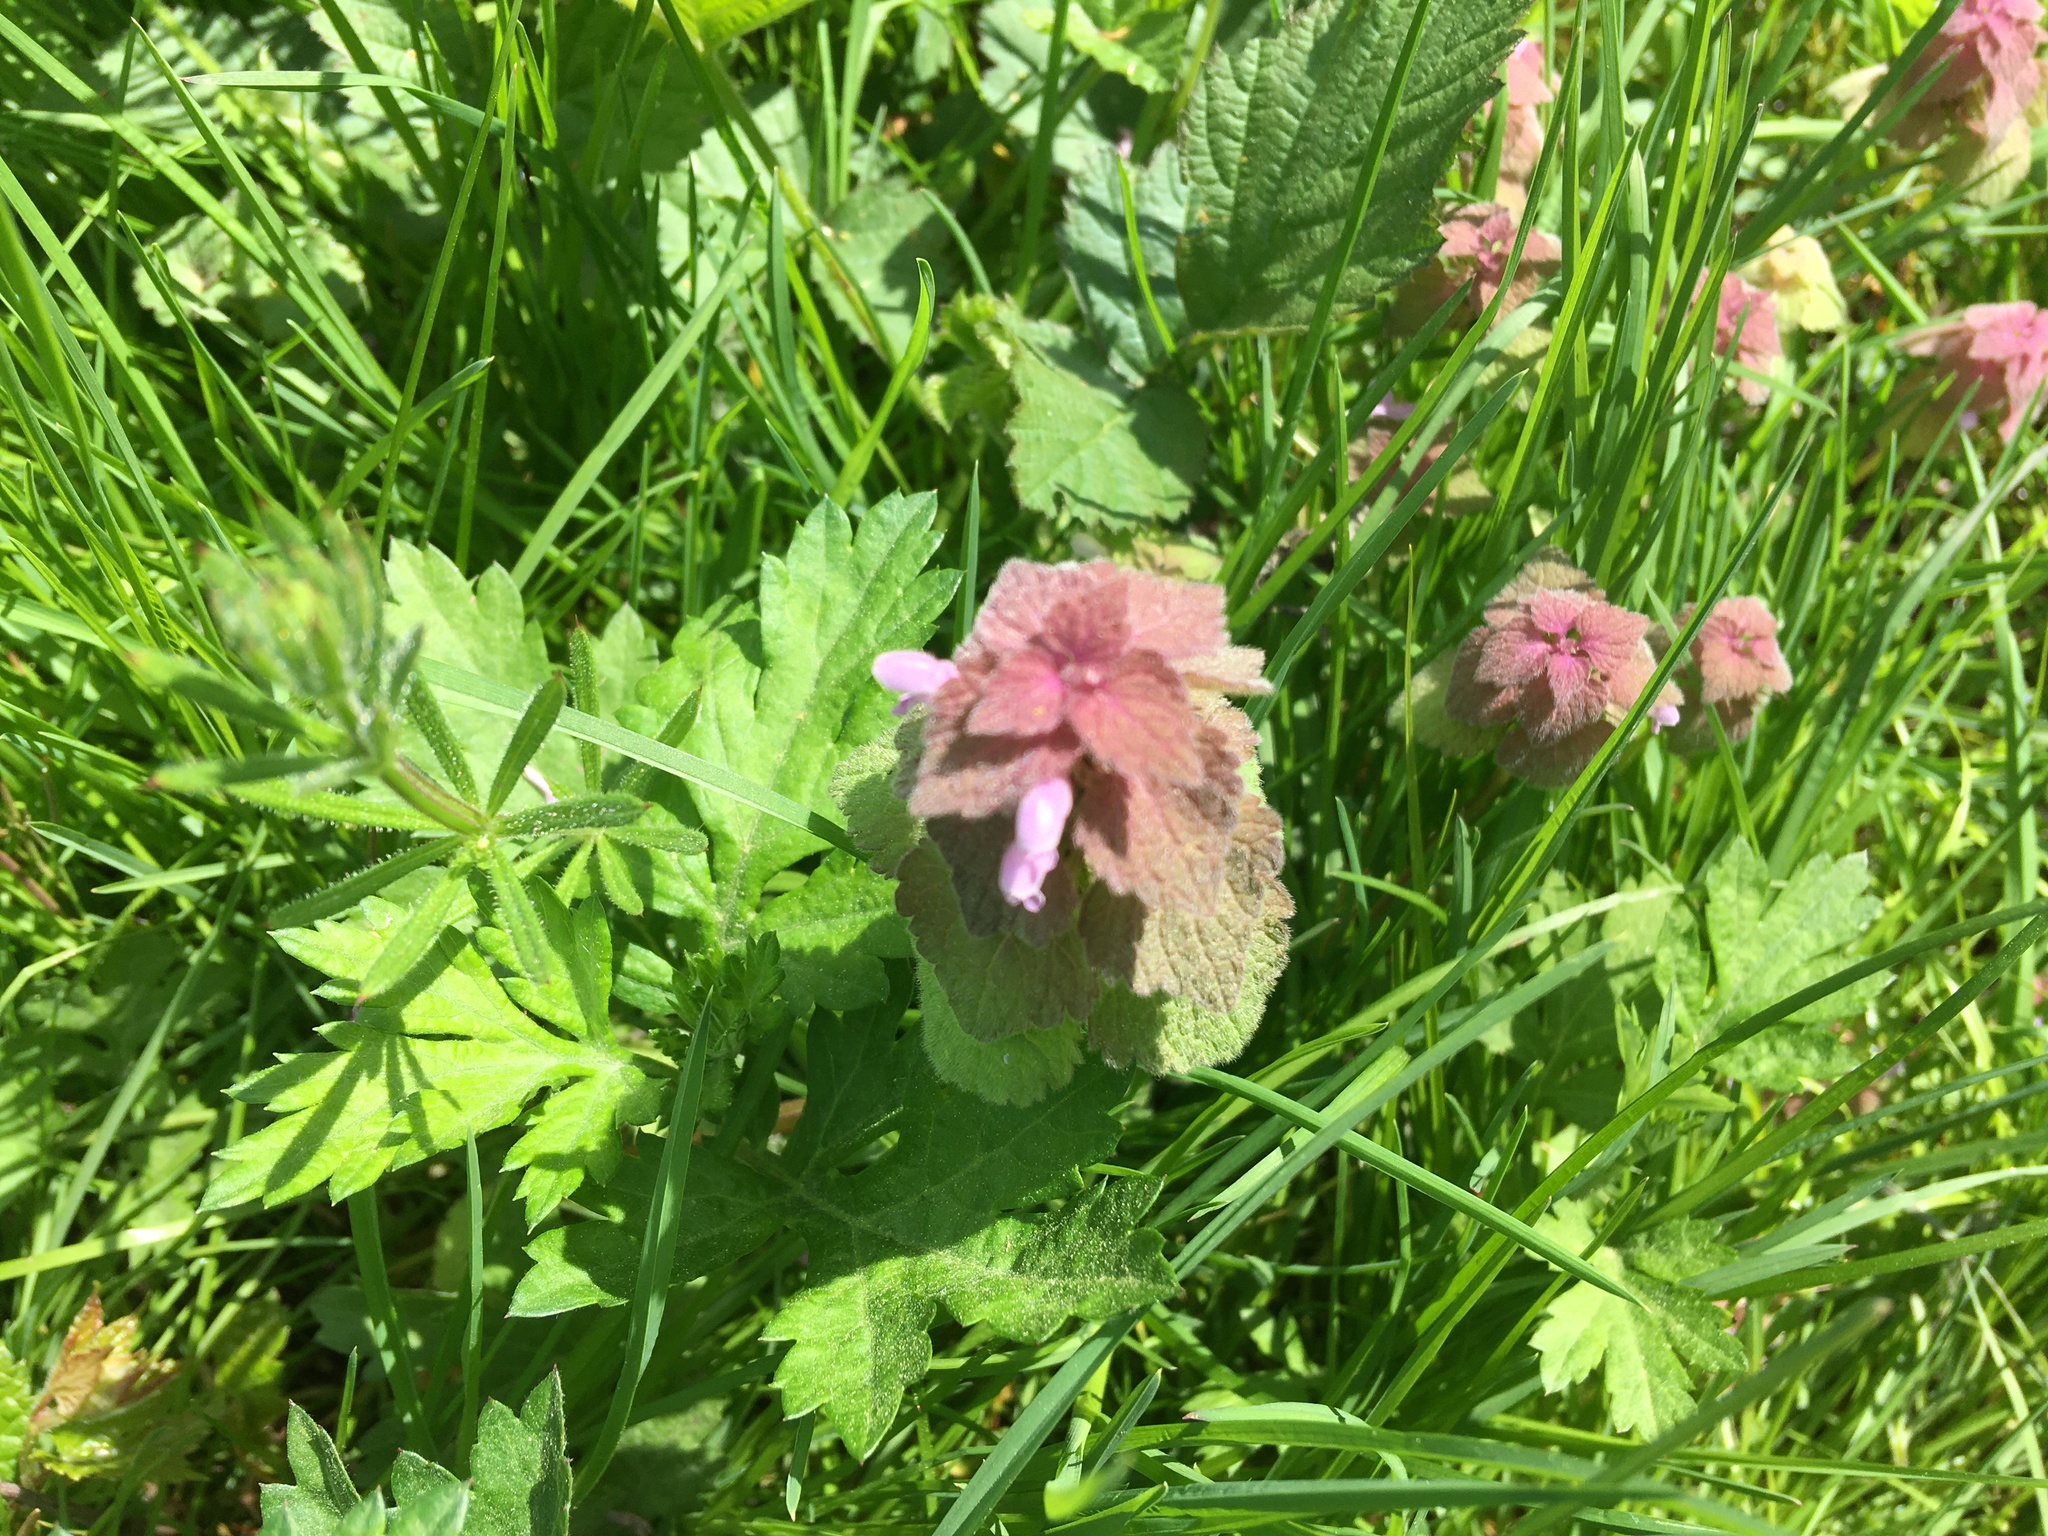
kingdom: Plantae
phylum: Tracheophyta
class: Magnoliopsida
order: Lamiales
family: Lamiaceae
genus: Lamium
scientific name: Lamium purpureum
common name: Red dead-nettle
